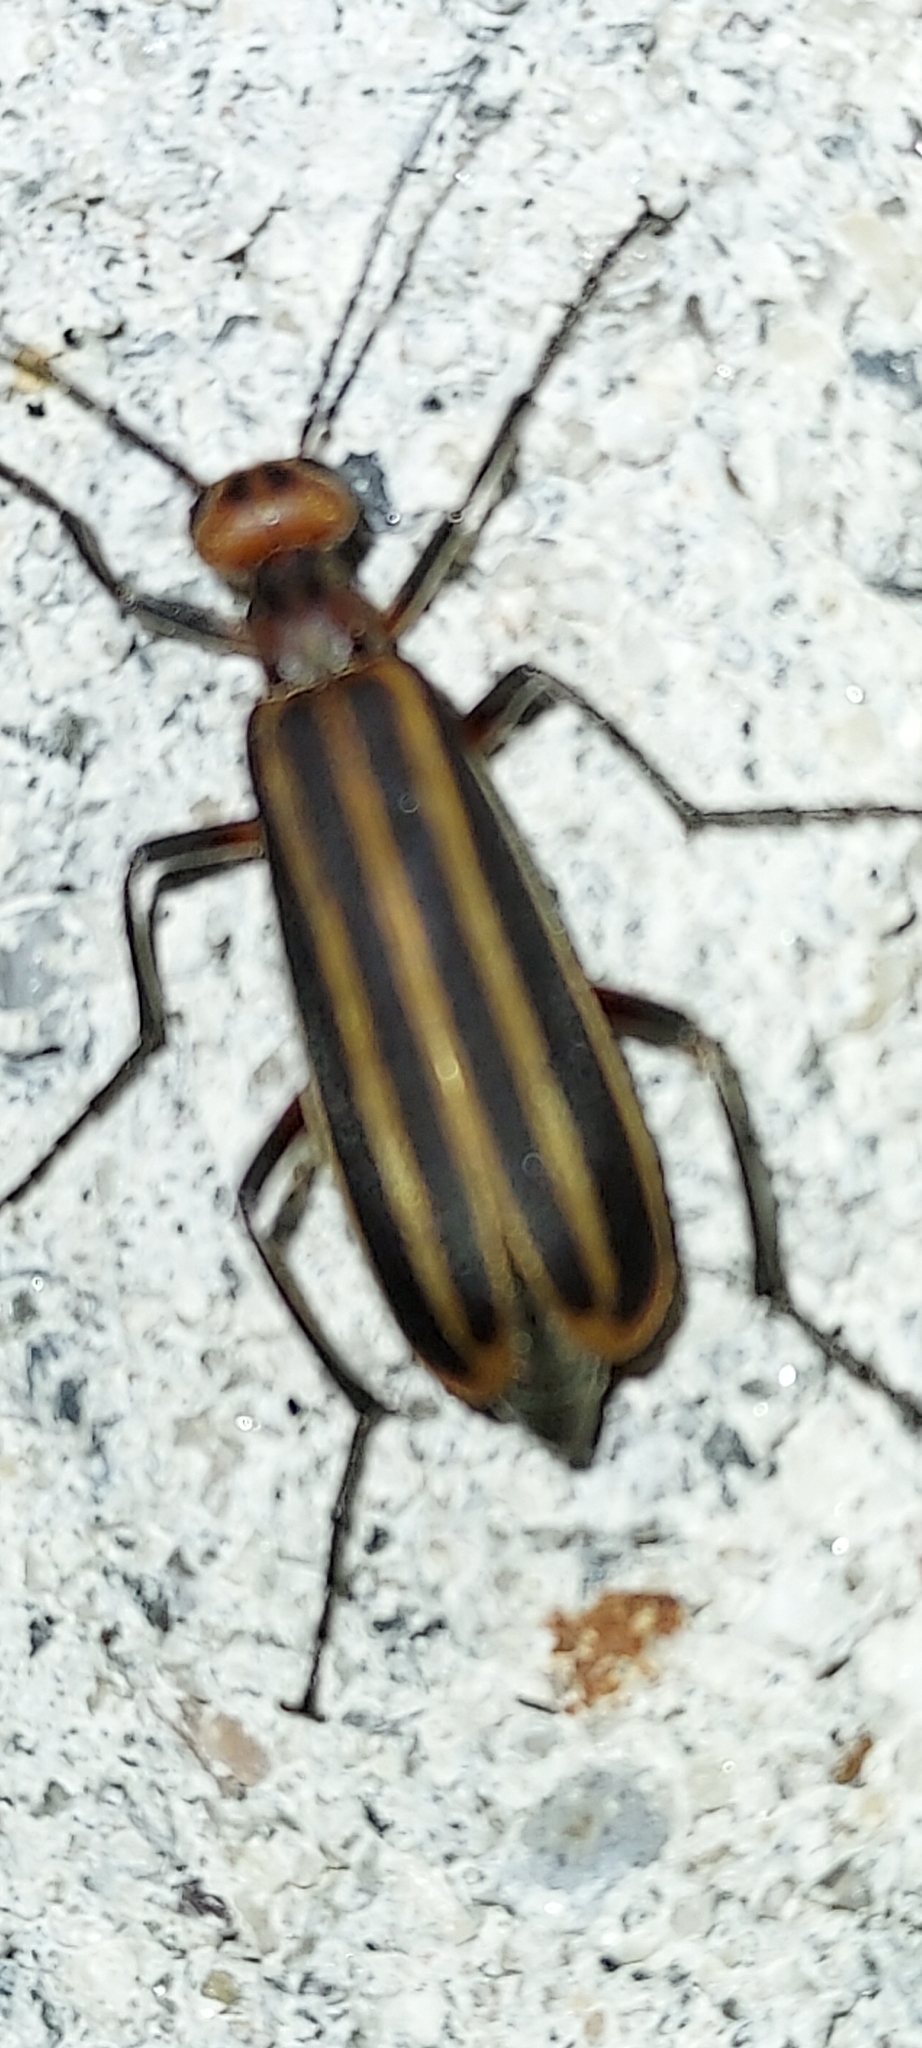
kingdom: Animalia
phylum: Arthropoda
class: Insecta
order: Coleoptera
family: Meloidae
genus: Epicauta
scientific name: Epicauta vittata
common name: Old-fashioned potato beetle
